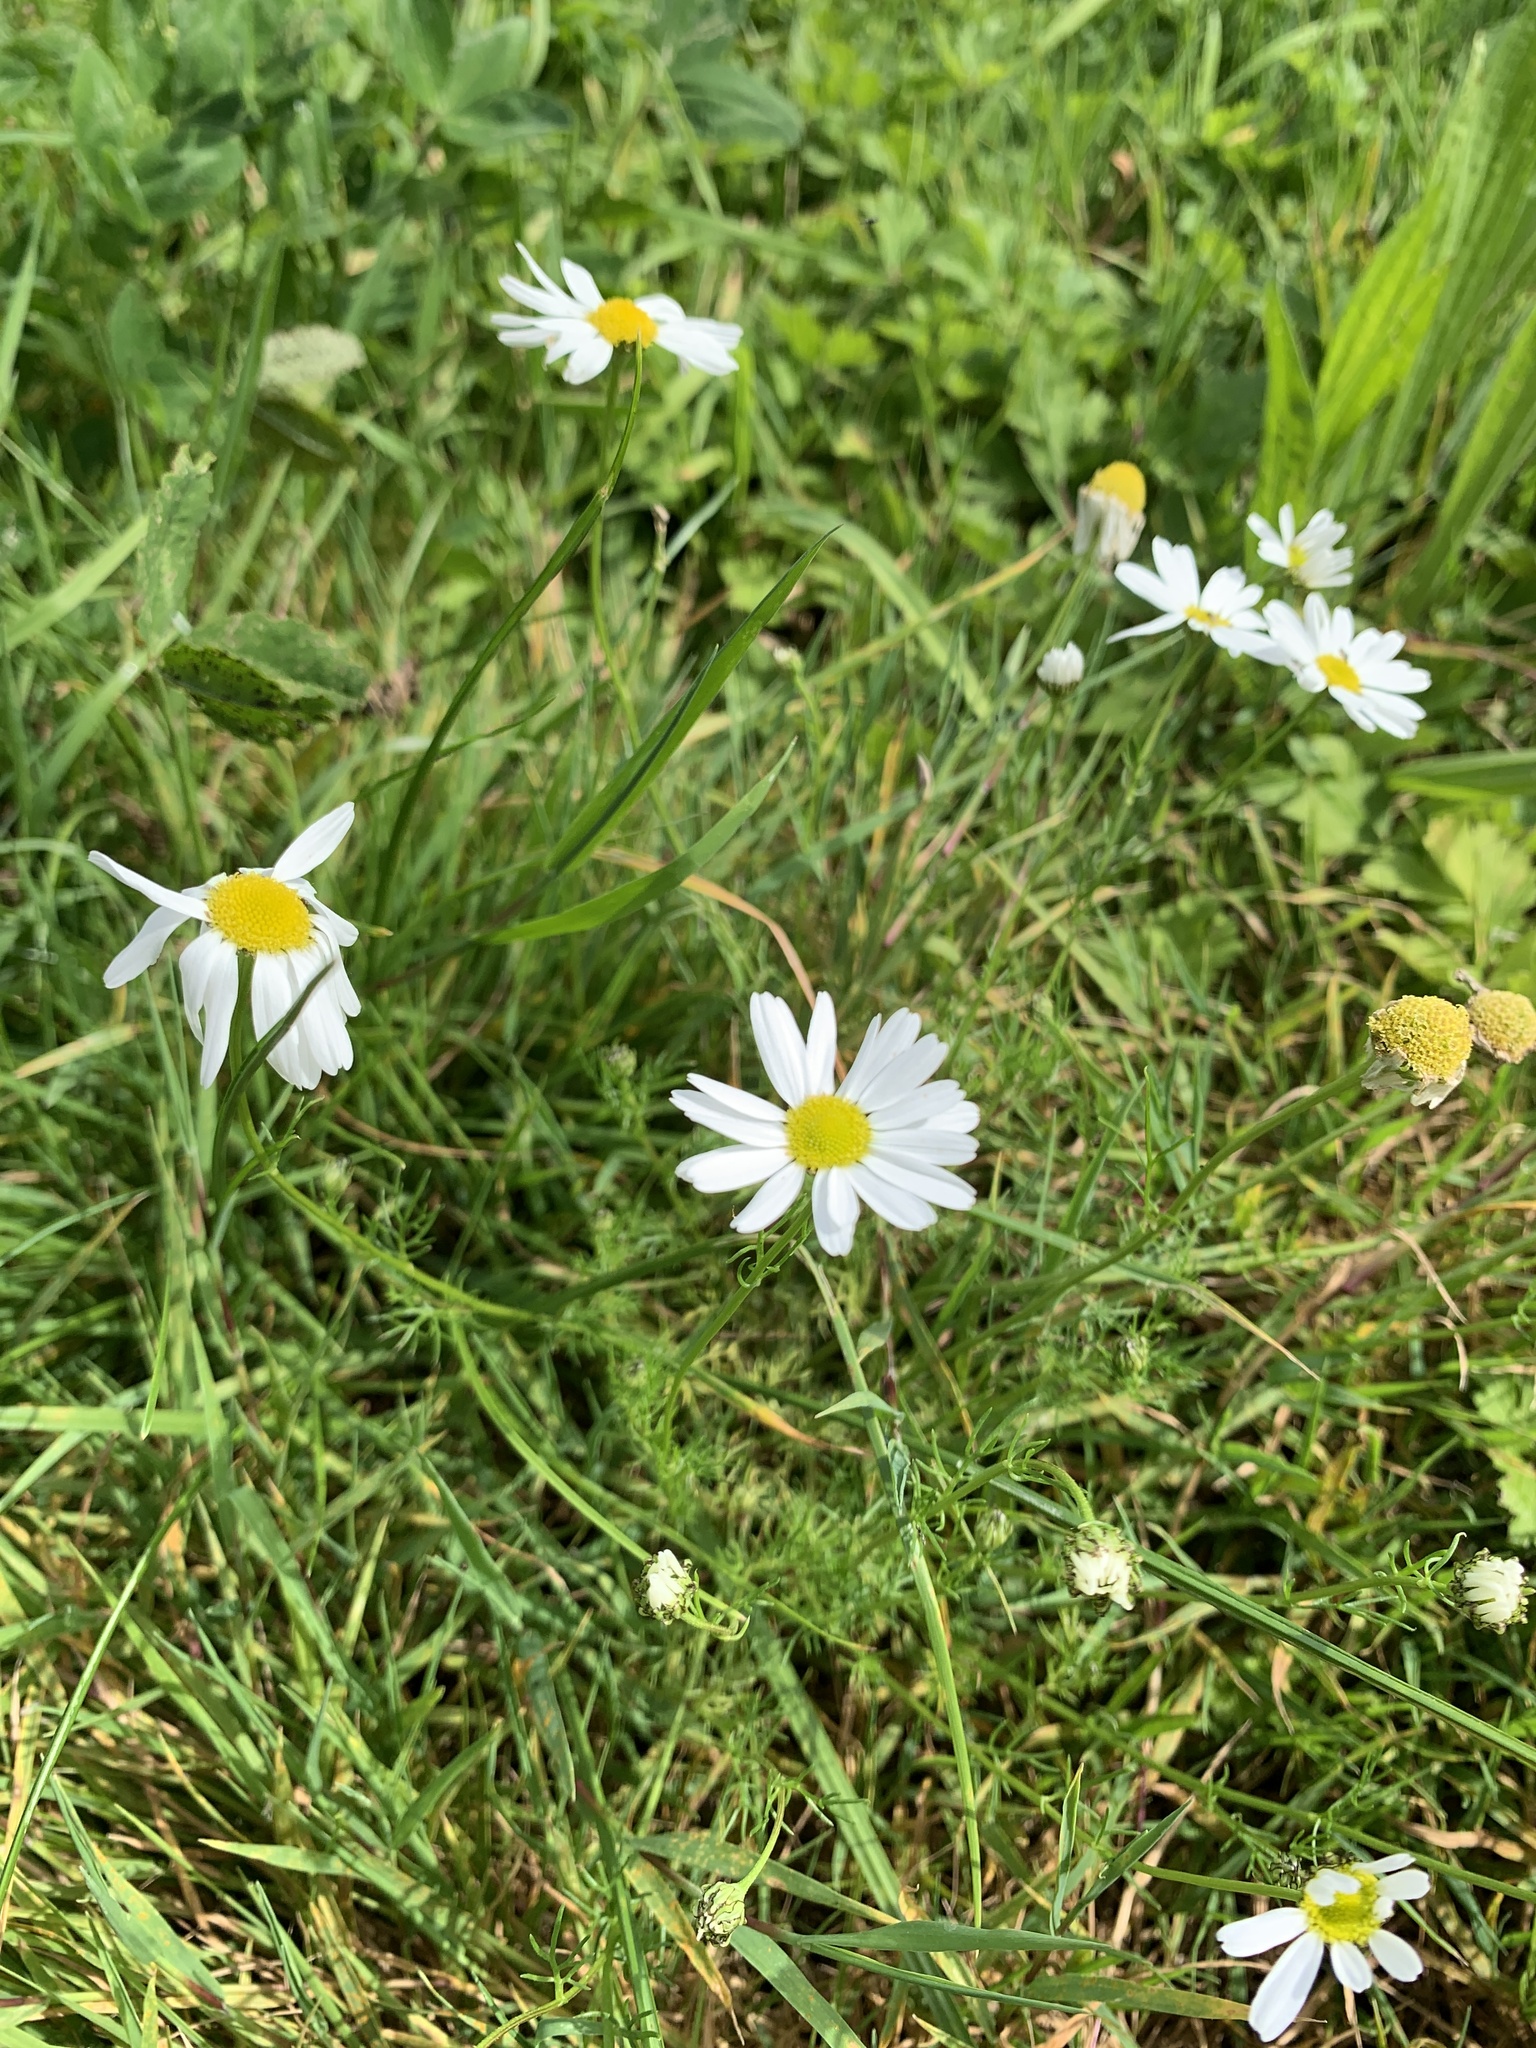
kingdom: Plantae
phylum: Tracheophyta
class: Magnoliopsida
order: Asterales
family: Asteraceae
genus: Tripleurospermum
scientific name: Tripleurospermum inodorum
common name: Scentless mayweed
